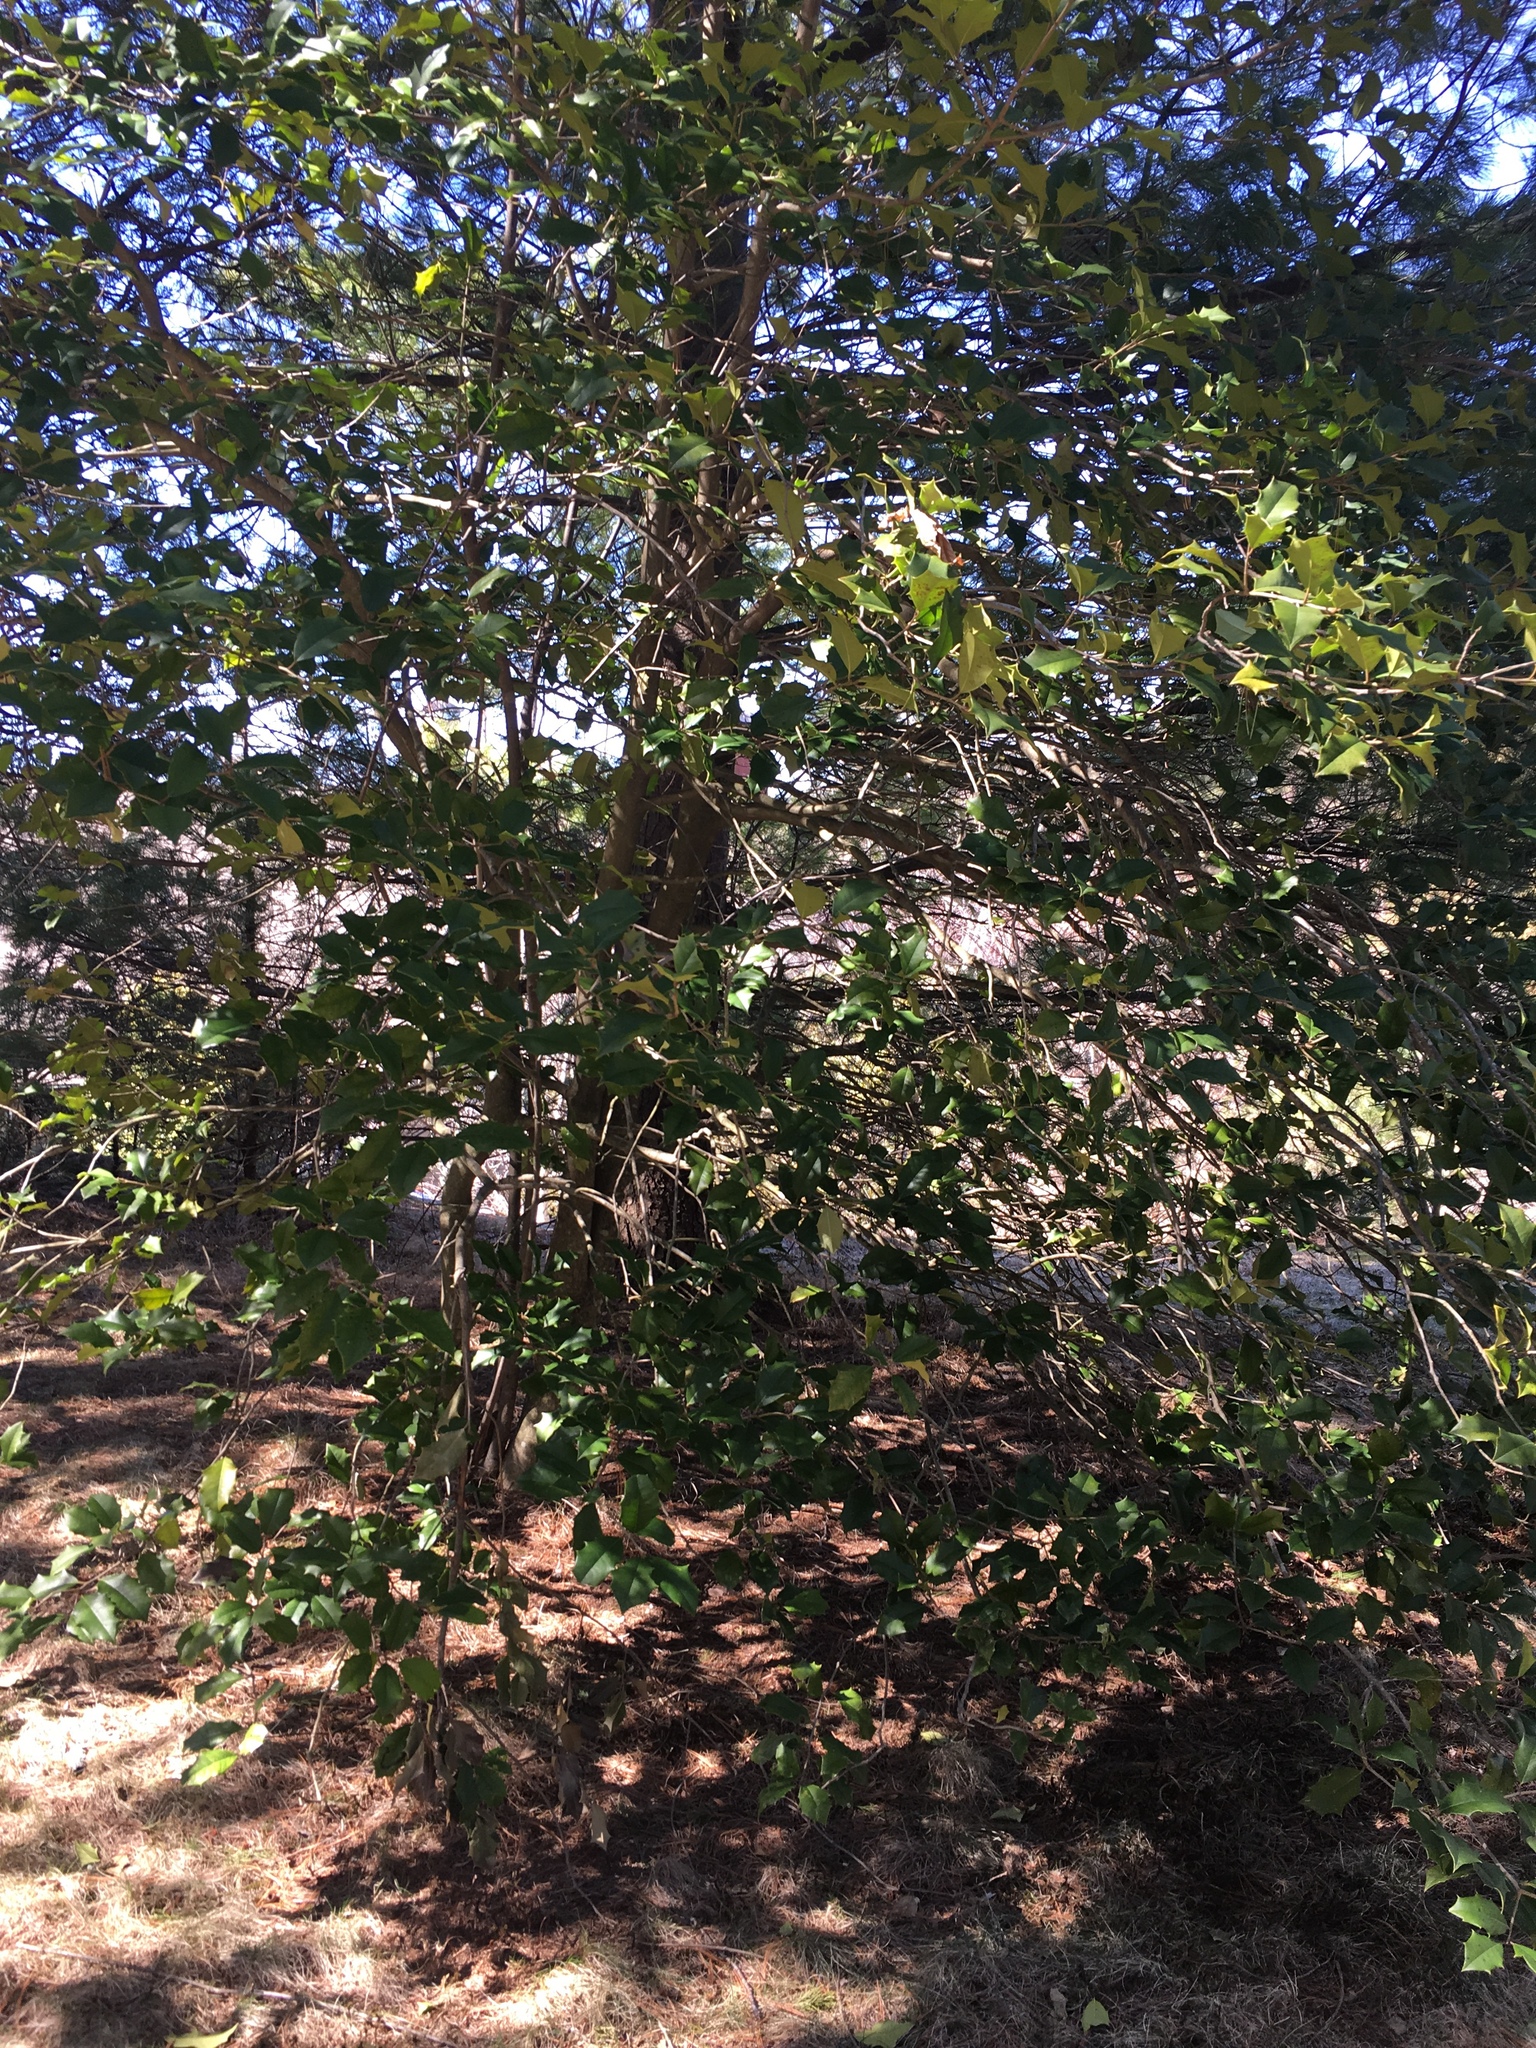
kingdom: Plantae
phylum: Tracheophyta
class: Magnoliopsida
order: Aquifoliales
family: Aquifoliaceae
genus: Ilex
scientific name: Ilex opaca
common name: American holly
